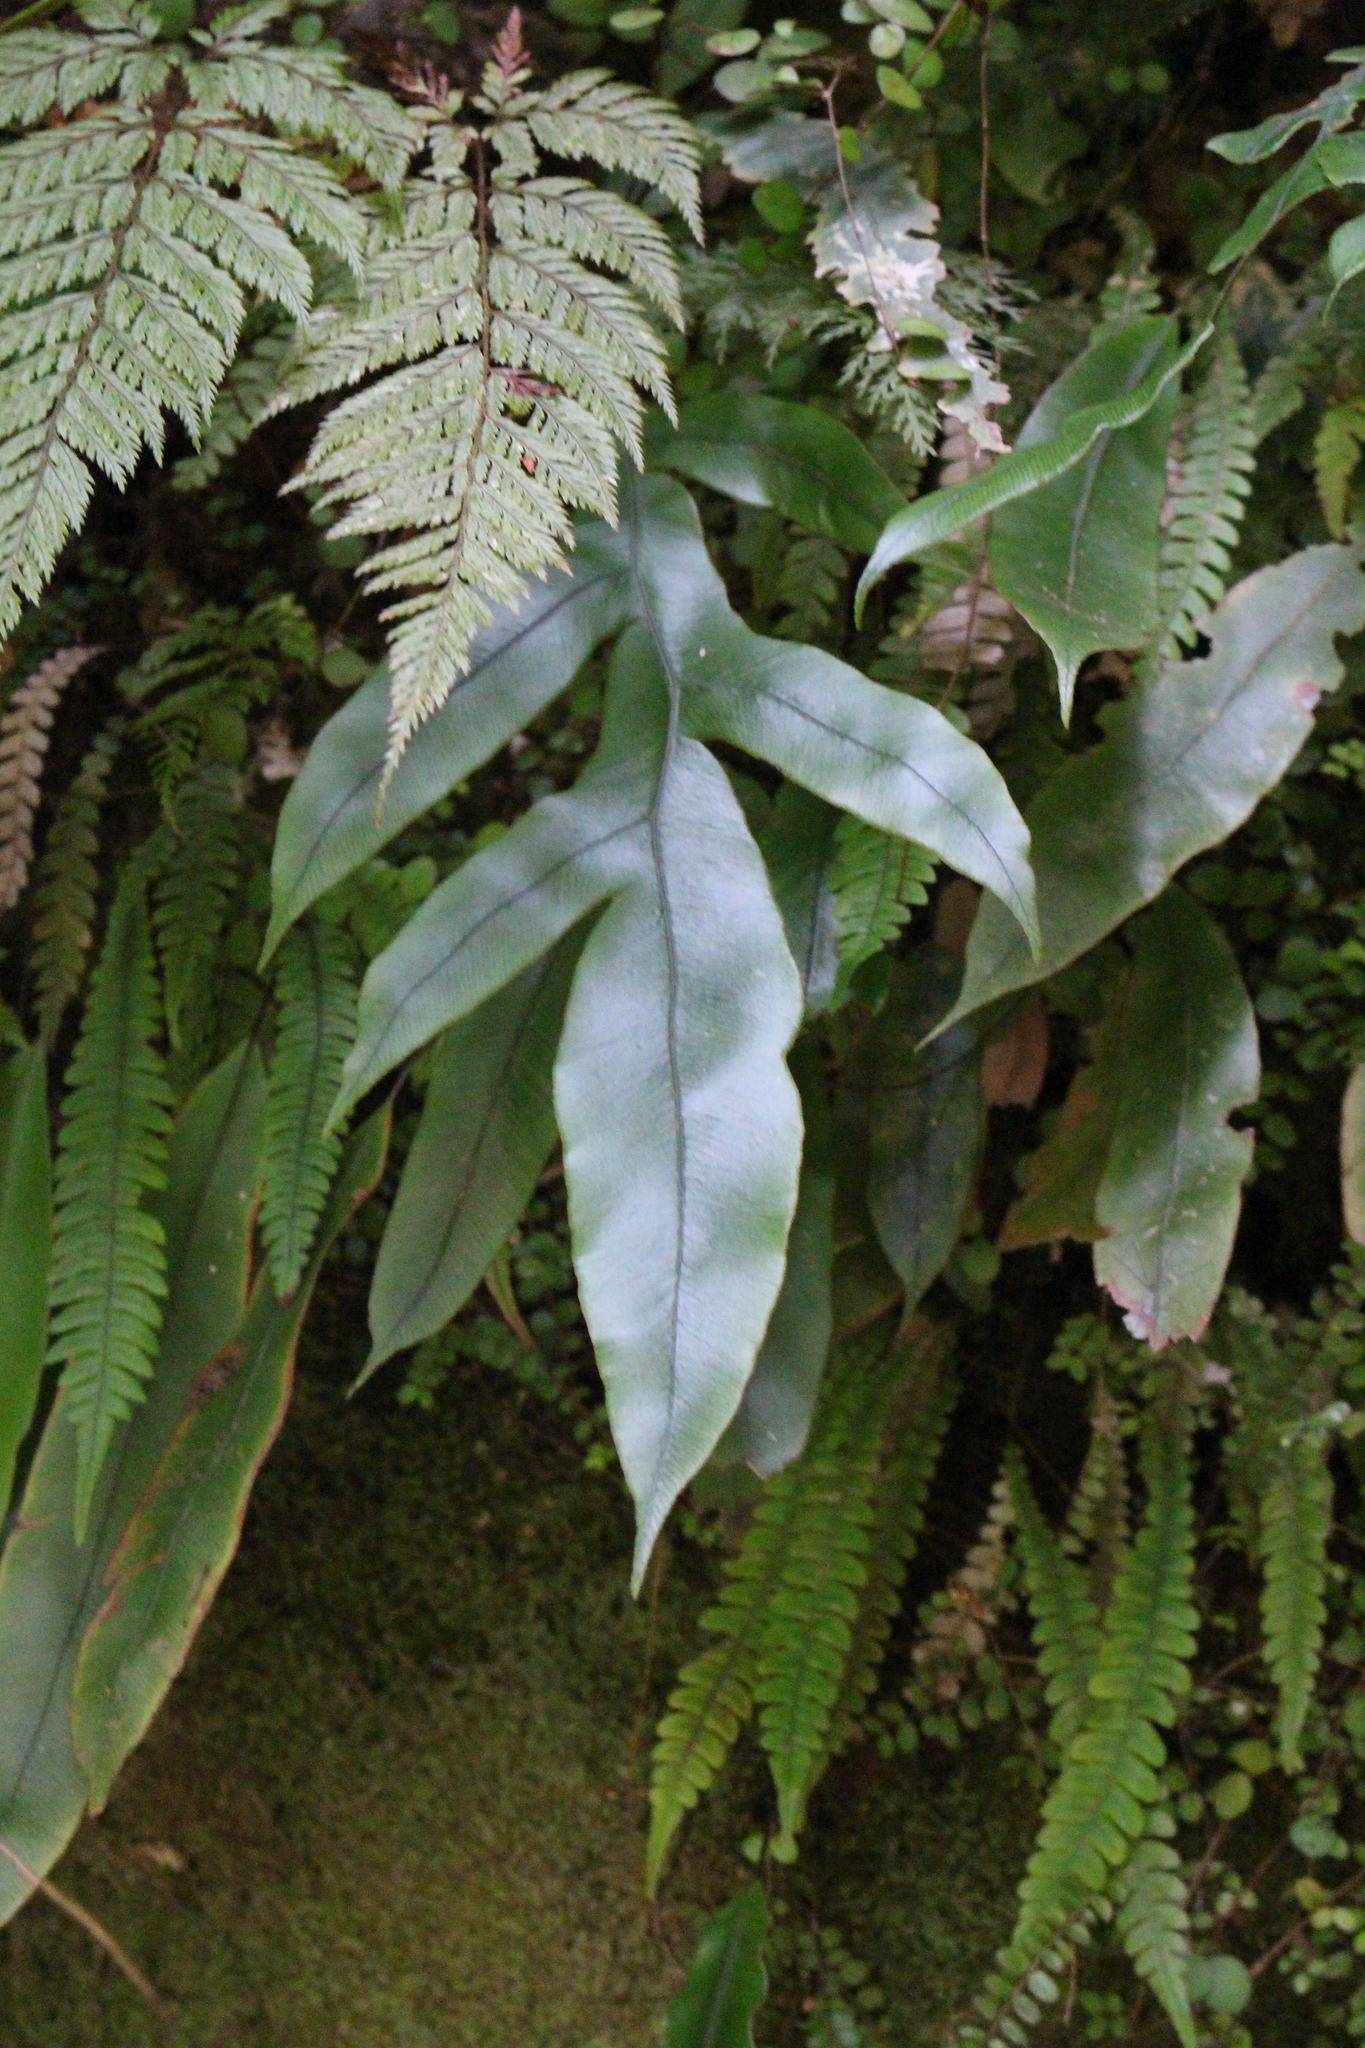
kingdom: Plantae
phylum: Tracheophyta
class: Polypodiopsida
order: Polypodiales
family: Blechnaceae
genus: Austroblechnum
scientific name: Austroblechnum colensoi
